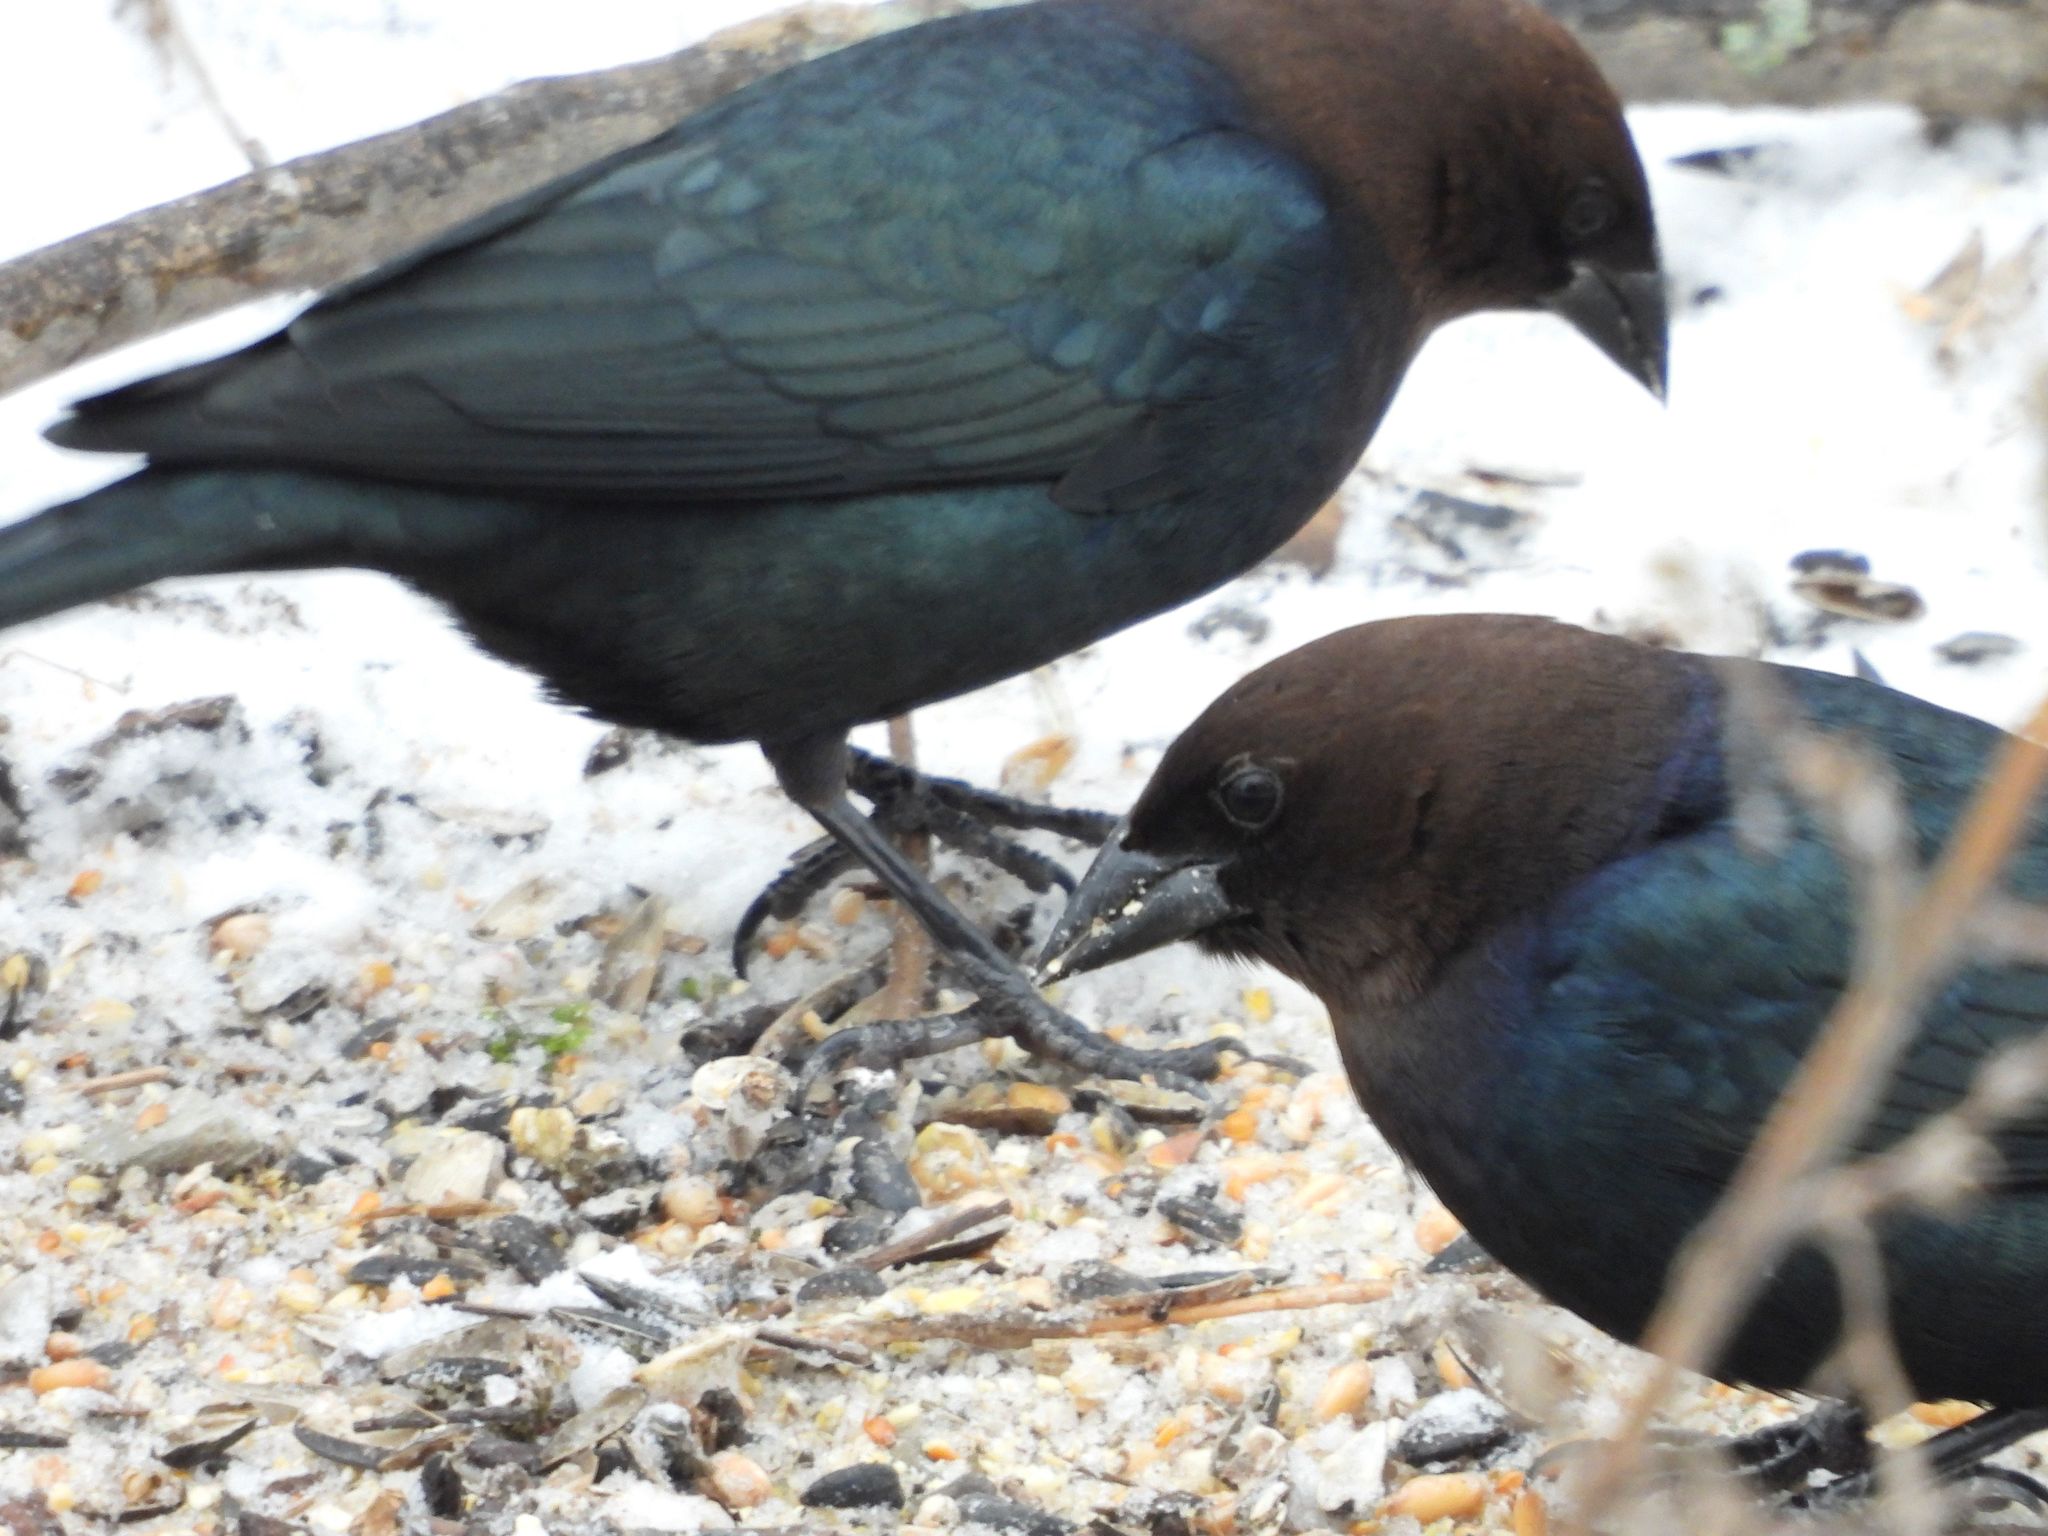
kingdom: Animalia
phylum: Chordata
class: Aves
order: Passeriformes
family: Icteridae
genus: Molothrus
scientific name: Molothrus ater
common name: Brown-headed cowbird
